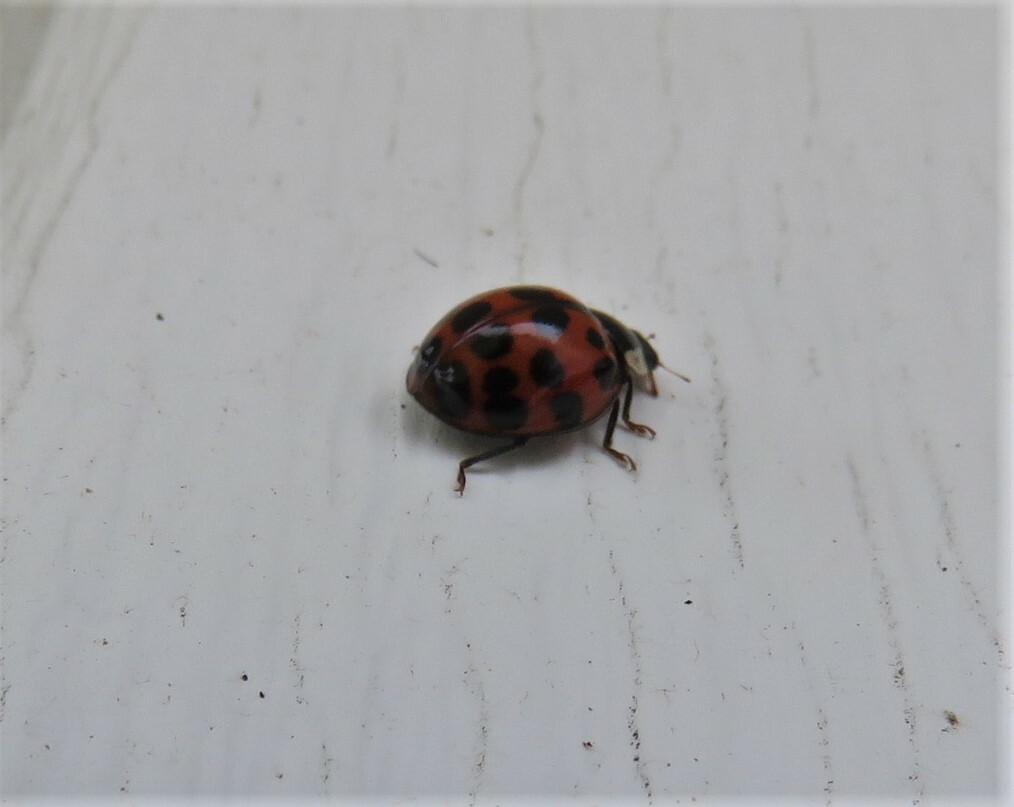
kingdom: Animalia
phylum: Arthropoda
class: Insecta
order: Coleoptera
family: Coccinellidae
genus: Harmonia
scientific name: Harmonia axyridis
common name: Harlequin ladybird
